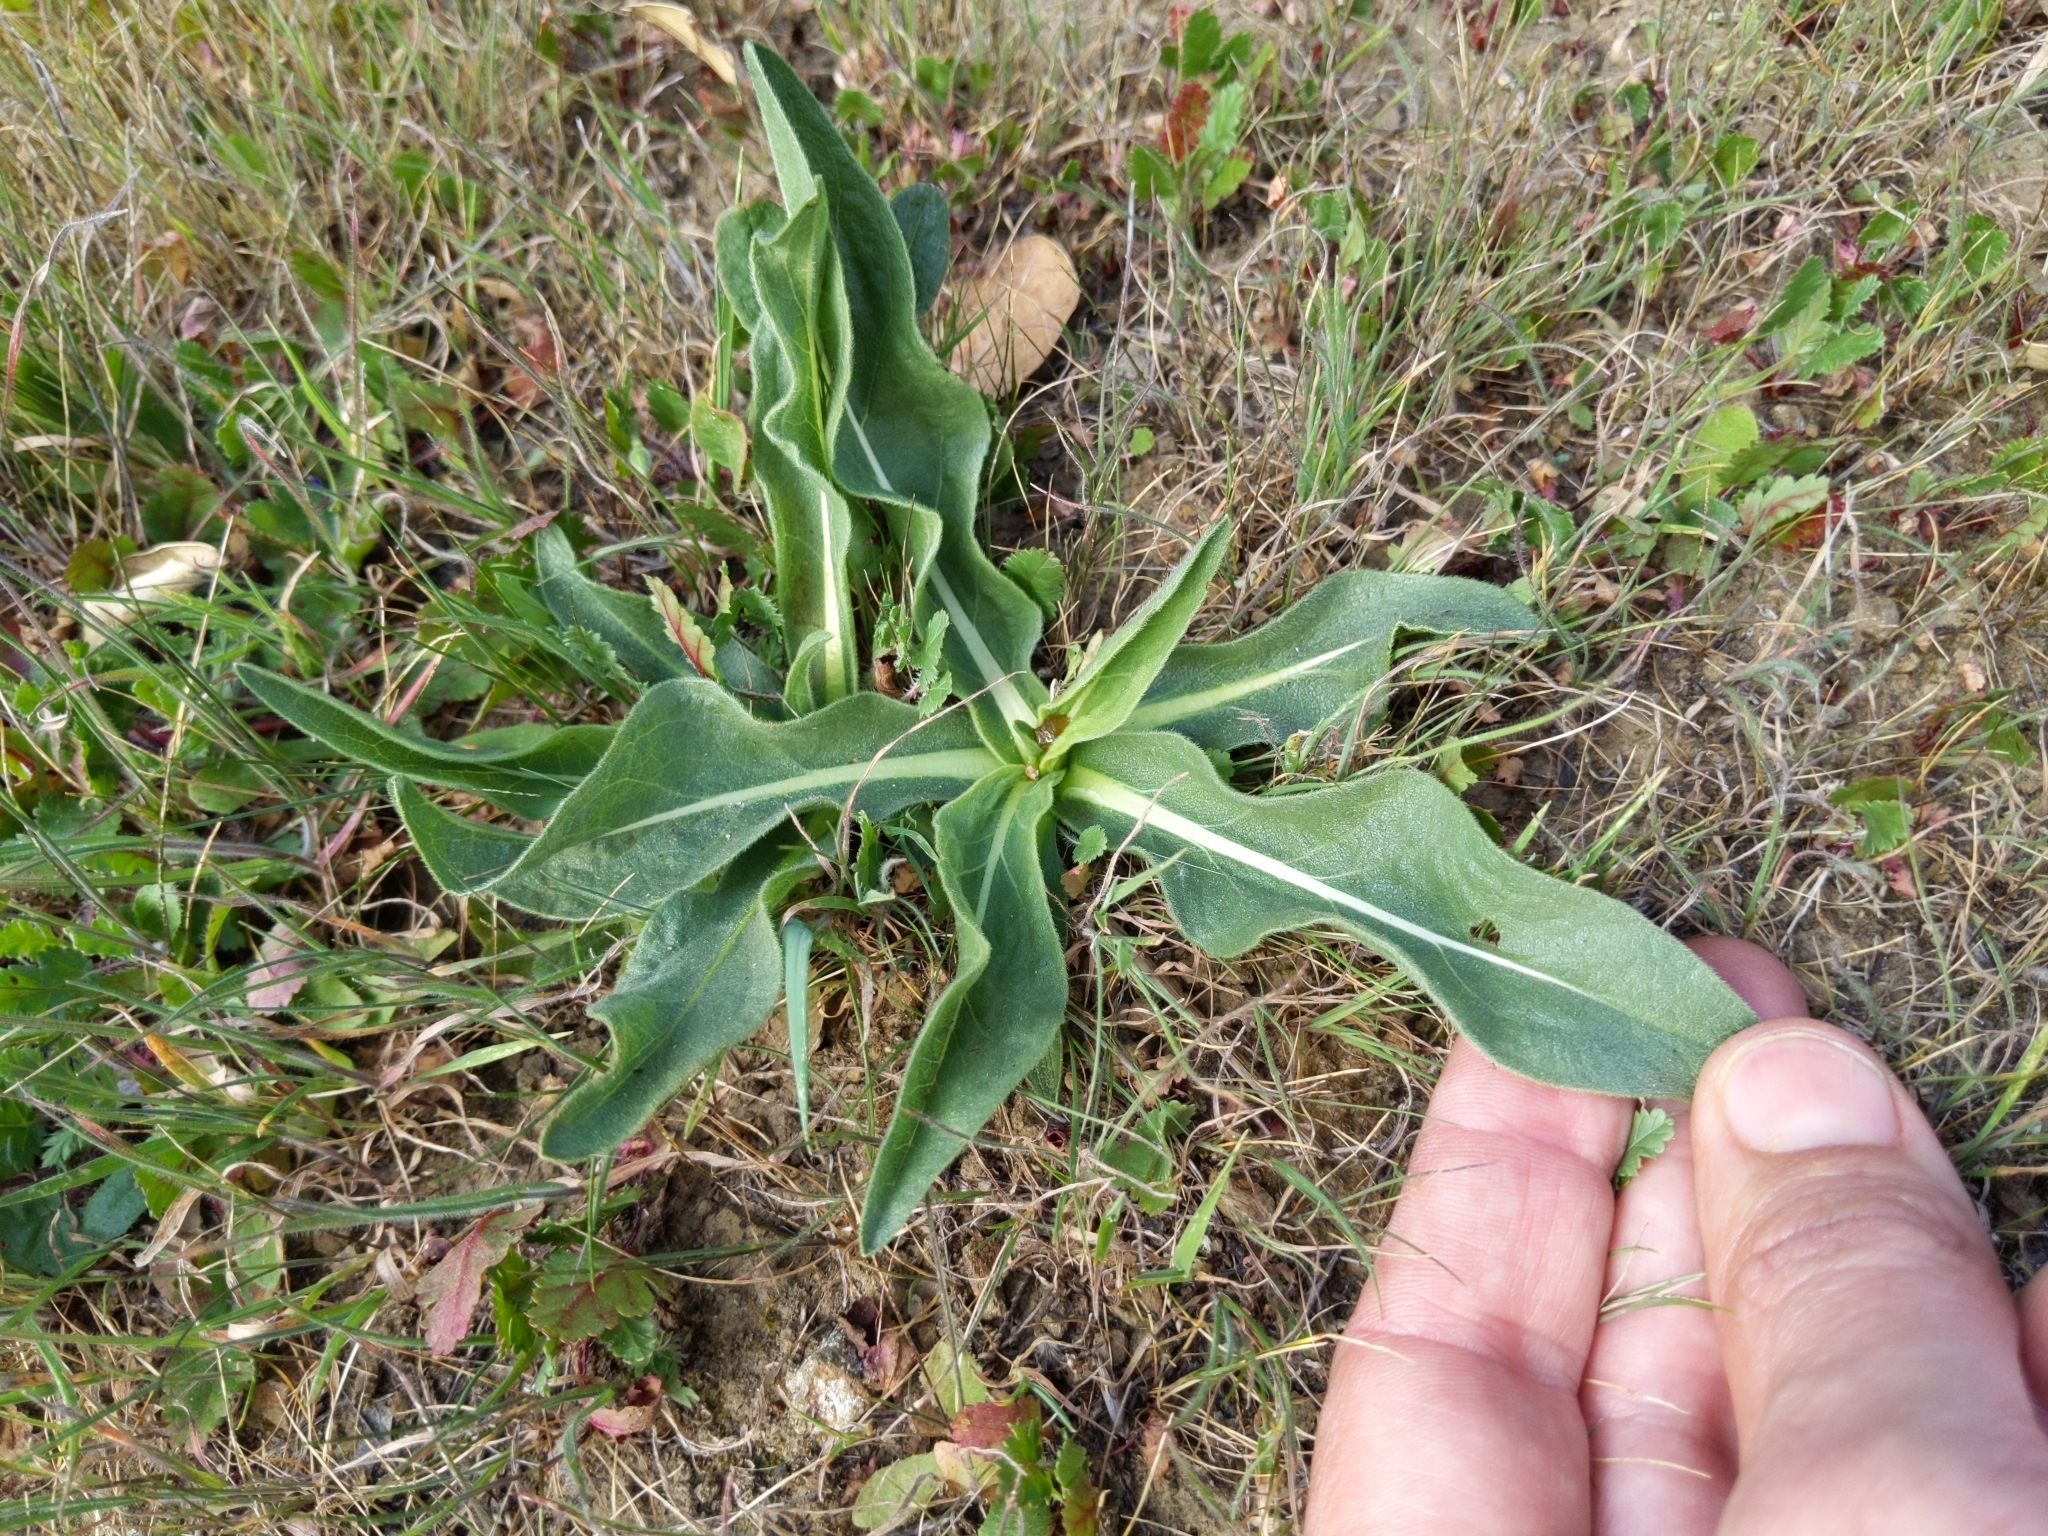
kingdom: Plantae
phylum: Tracheophyta
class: Magnoliopsida
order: Asterales
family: Asteraceae
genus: Wyethia
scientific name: Wyethia angustifolia
